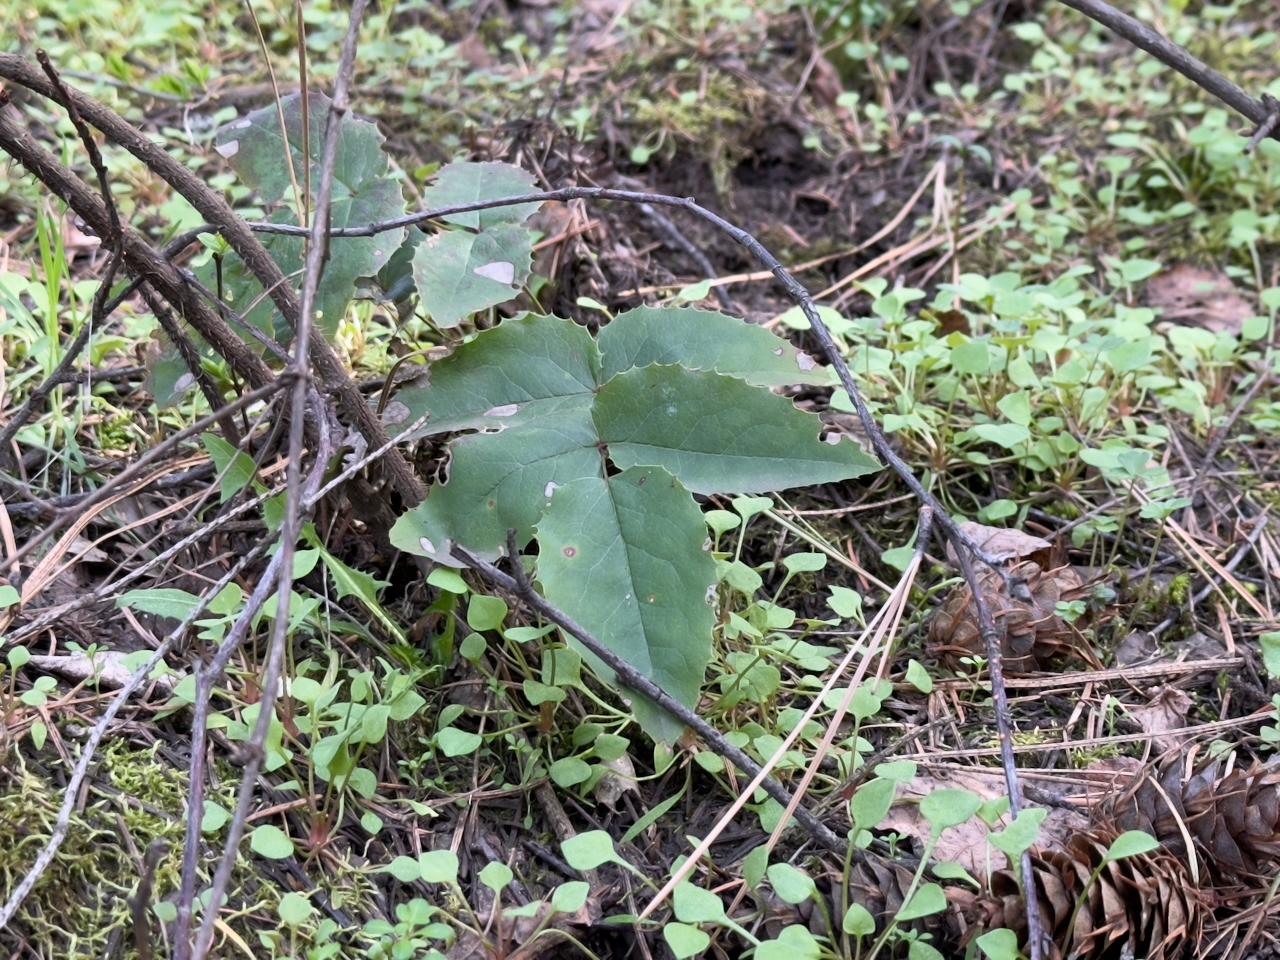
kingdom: Plantae
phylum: Tracheophyta
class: Magnoliopsida
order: Ranunculales
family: Berberidaceae
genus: Mahonia
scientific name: Mahonia repens
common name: Creeping oregon-grape
